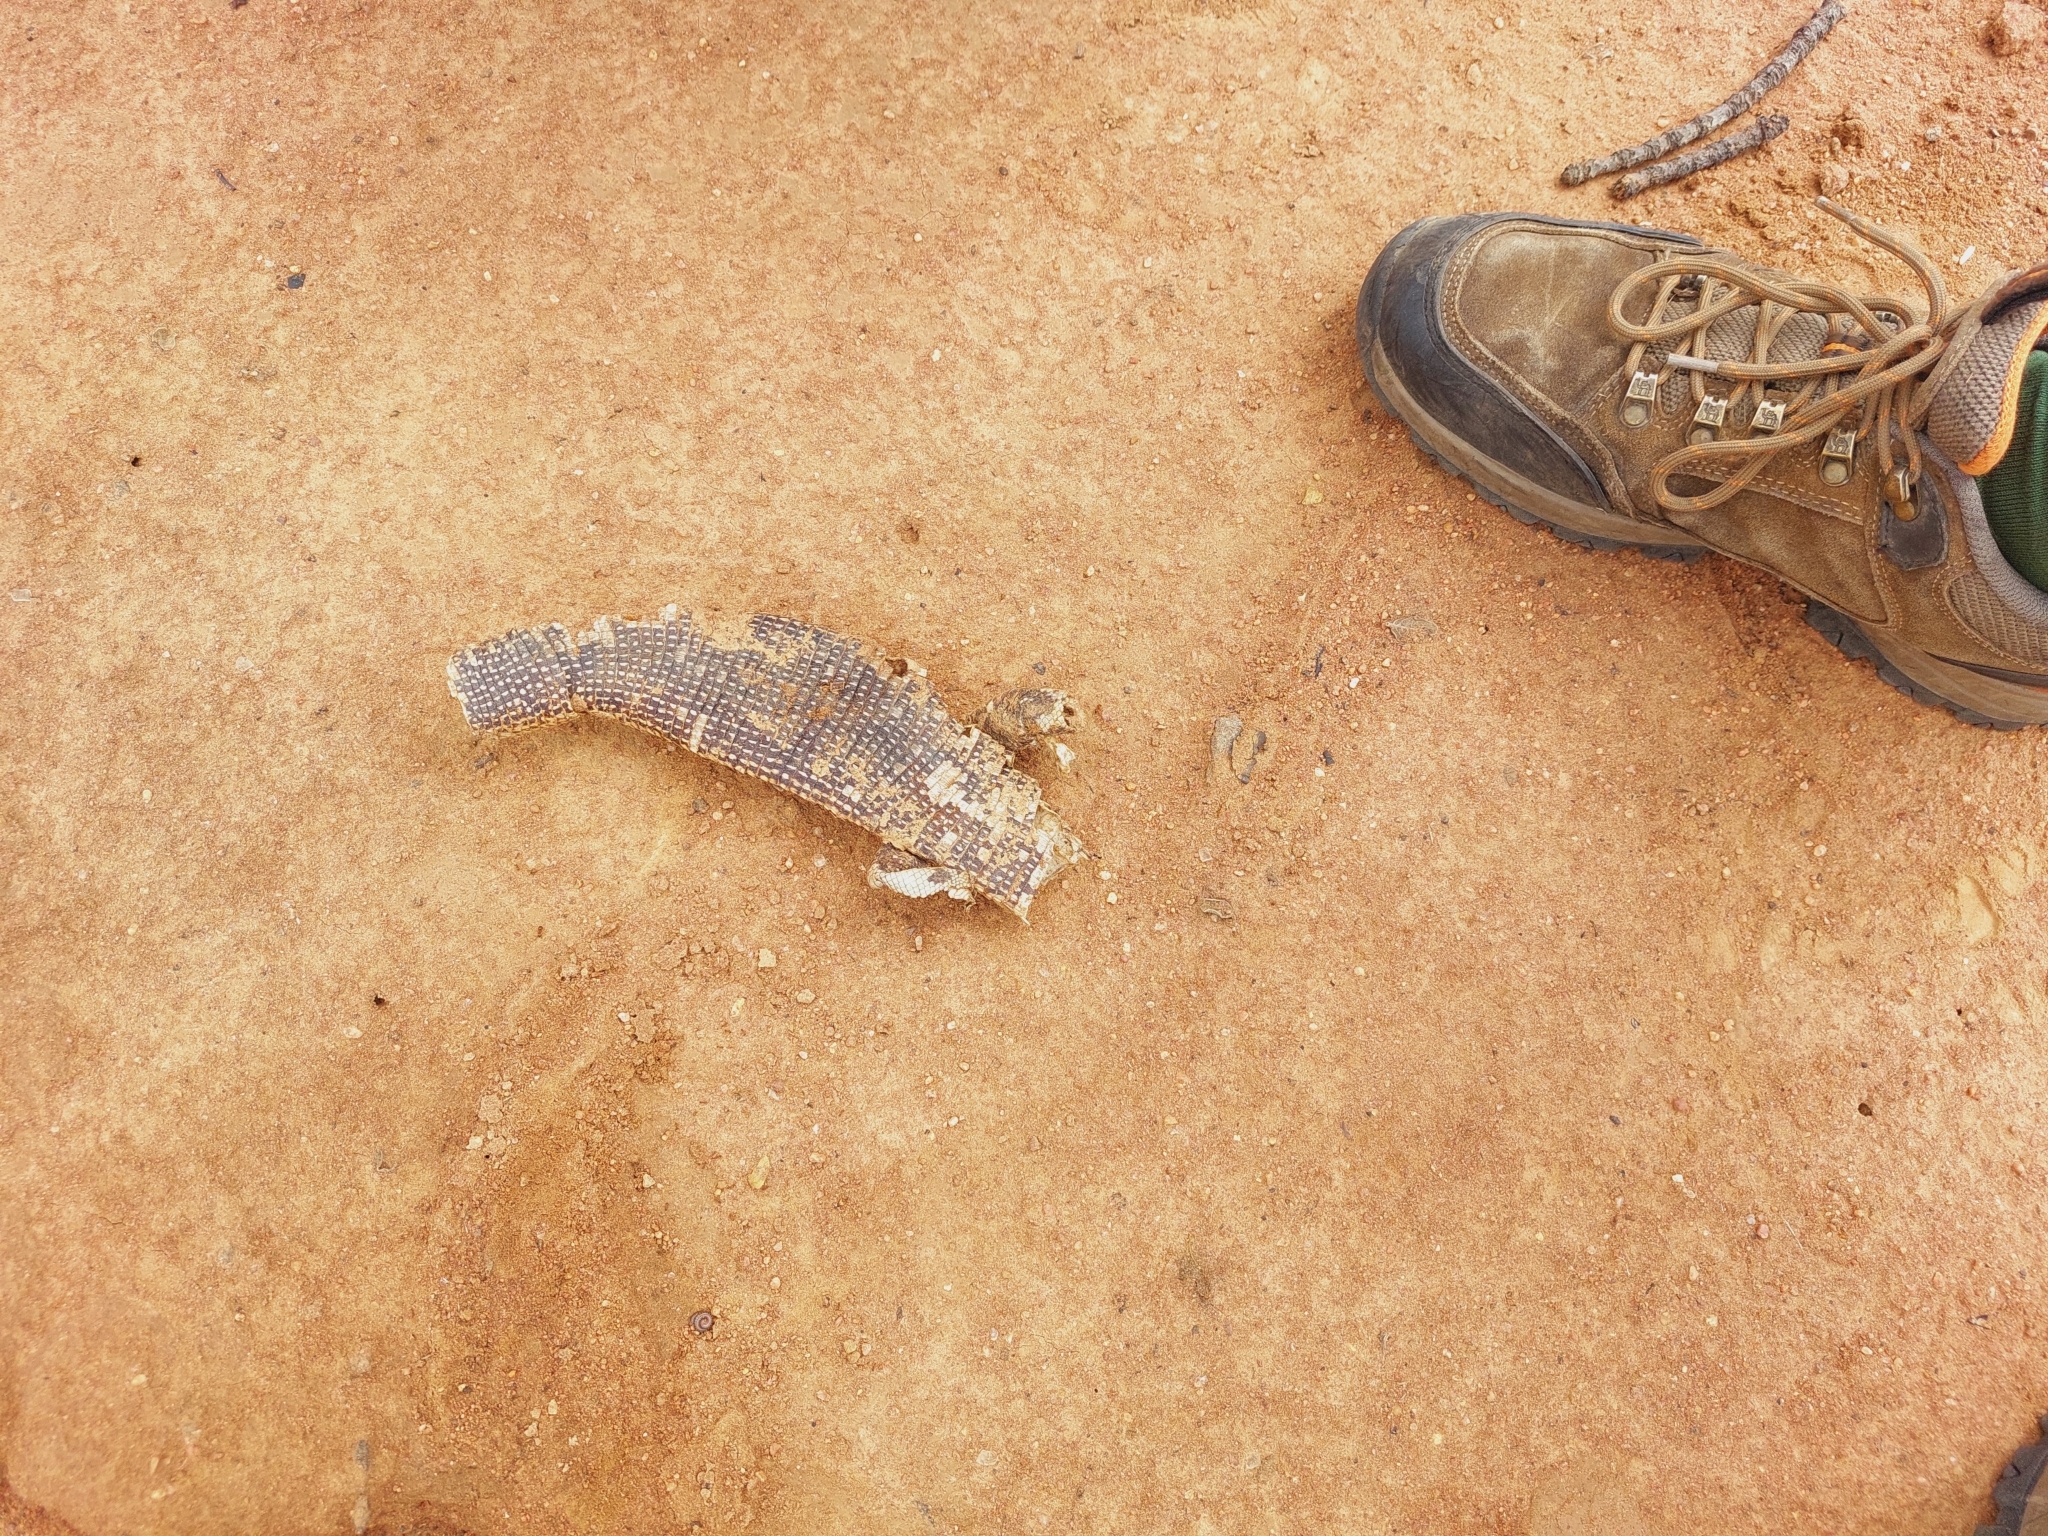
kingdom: Animalia
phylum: Chordata
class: Squamata
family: Gerrhosauridae
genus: Matobosaurus
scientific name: Matobosaurus validus
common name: Common giant plated lizard
